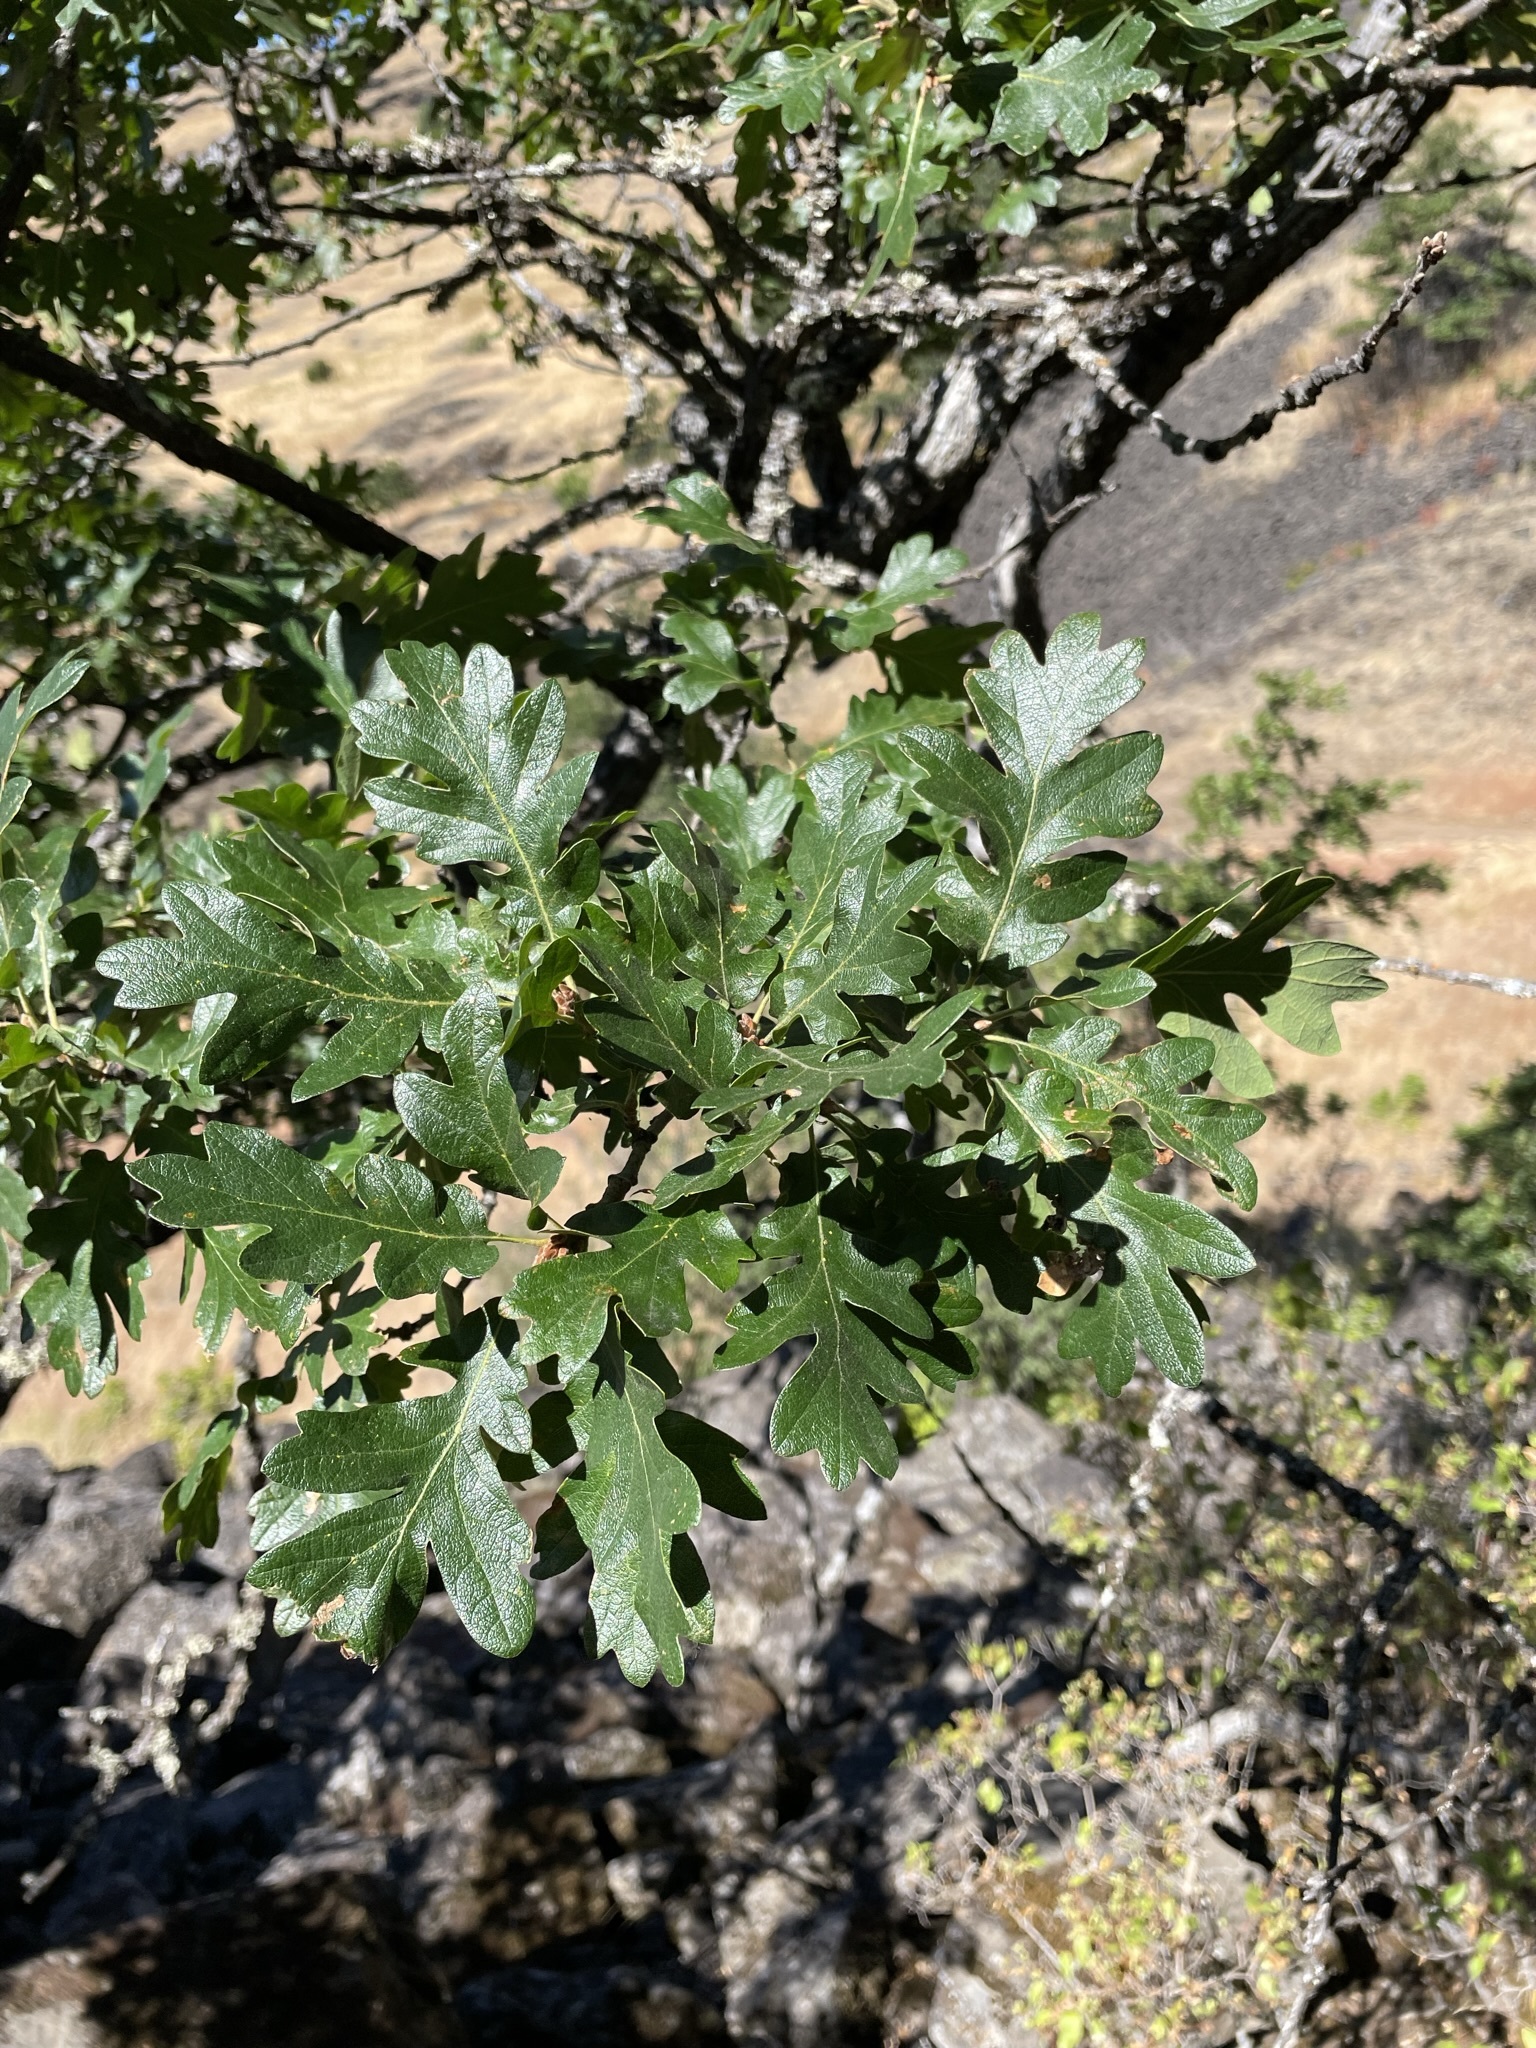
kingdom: Plantae
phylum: Tracheophyta
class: Magnoliopsida
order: Fagales
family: Fagaceae
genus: Quercus
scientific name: Quercus garryana
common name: Garry oak
